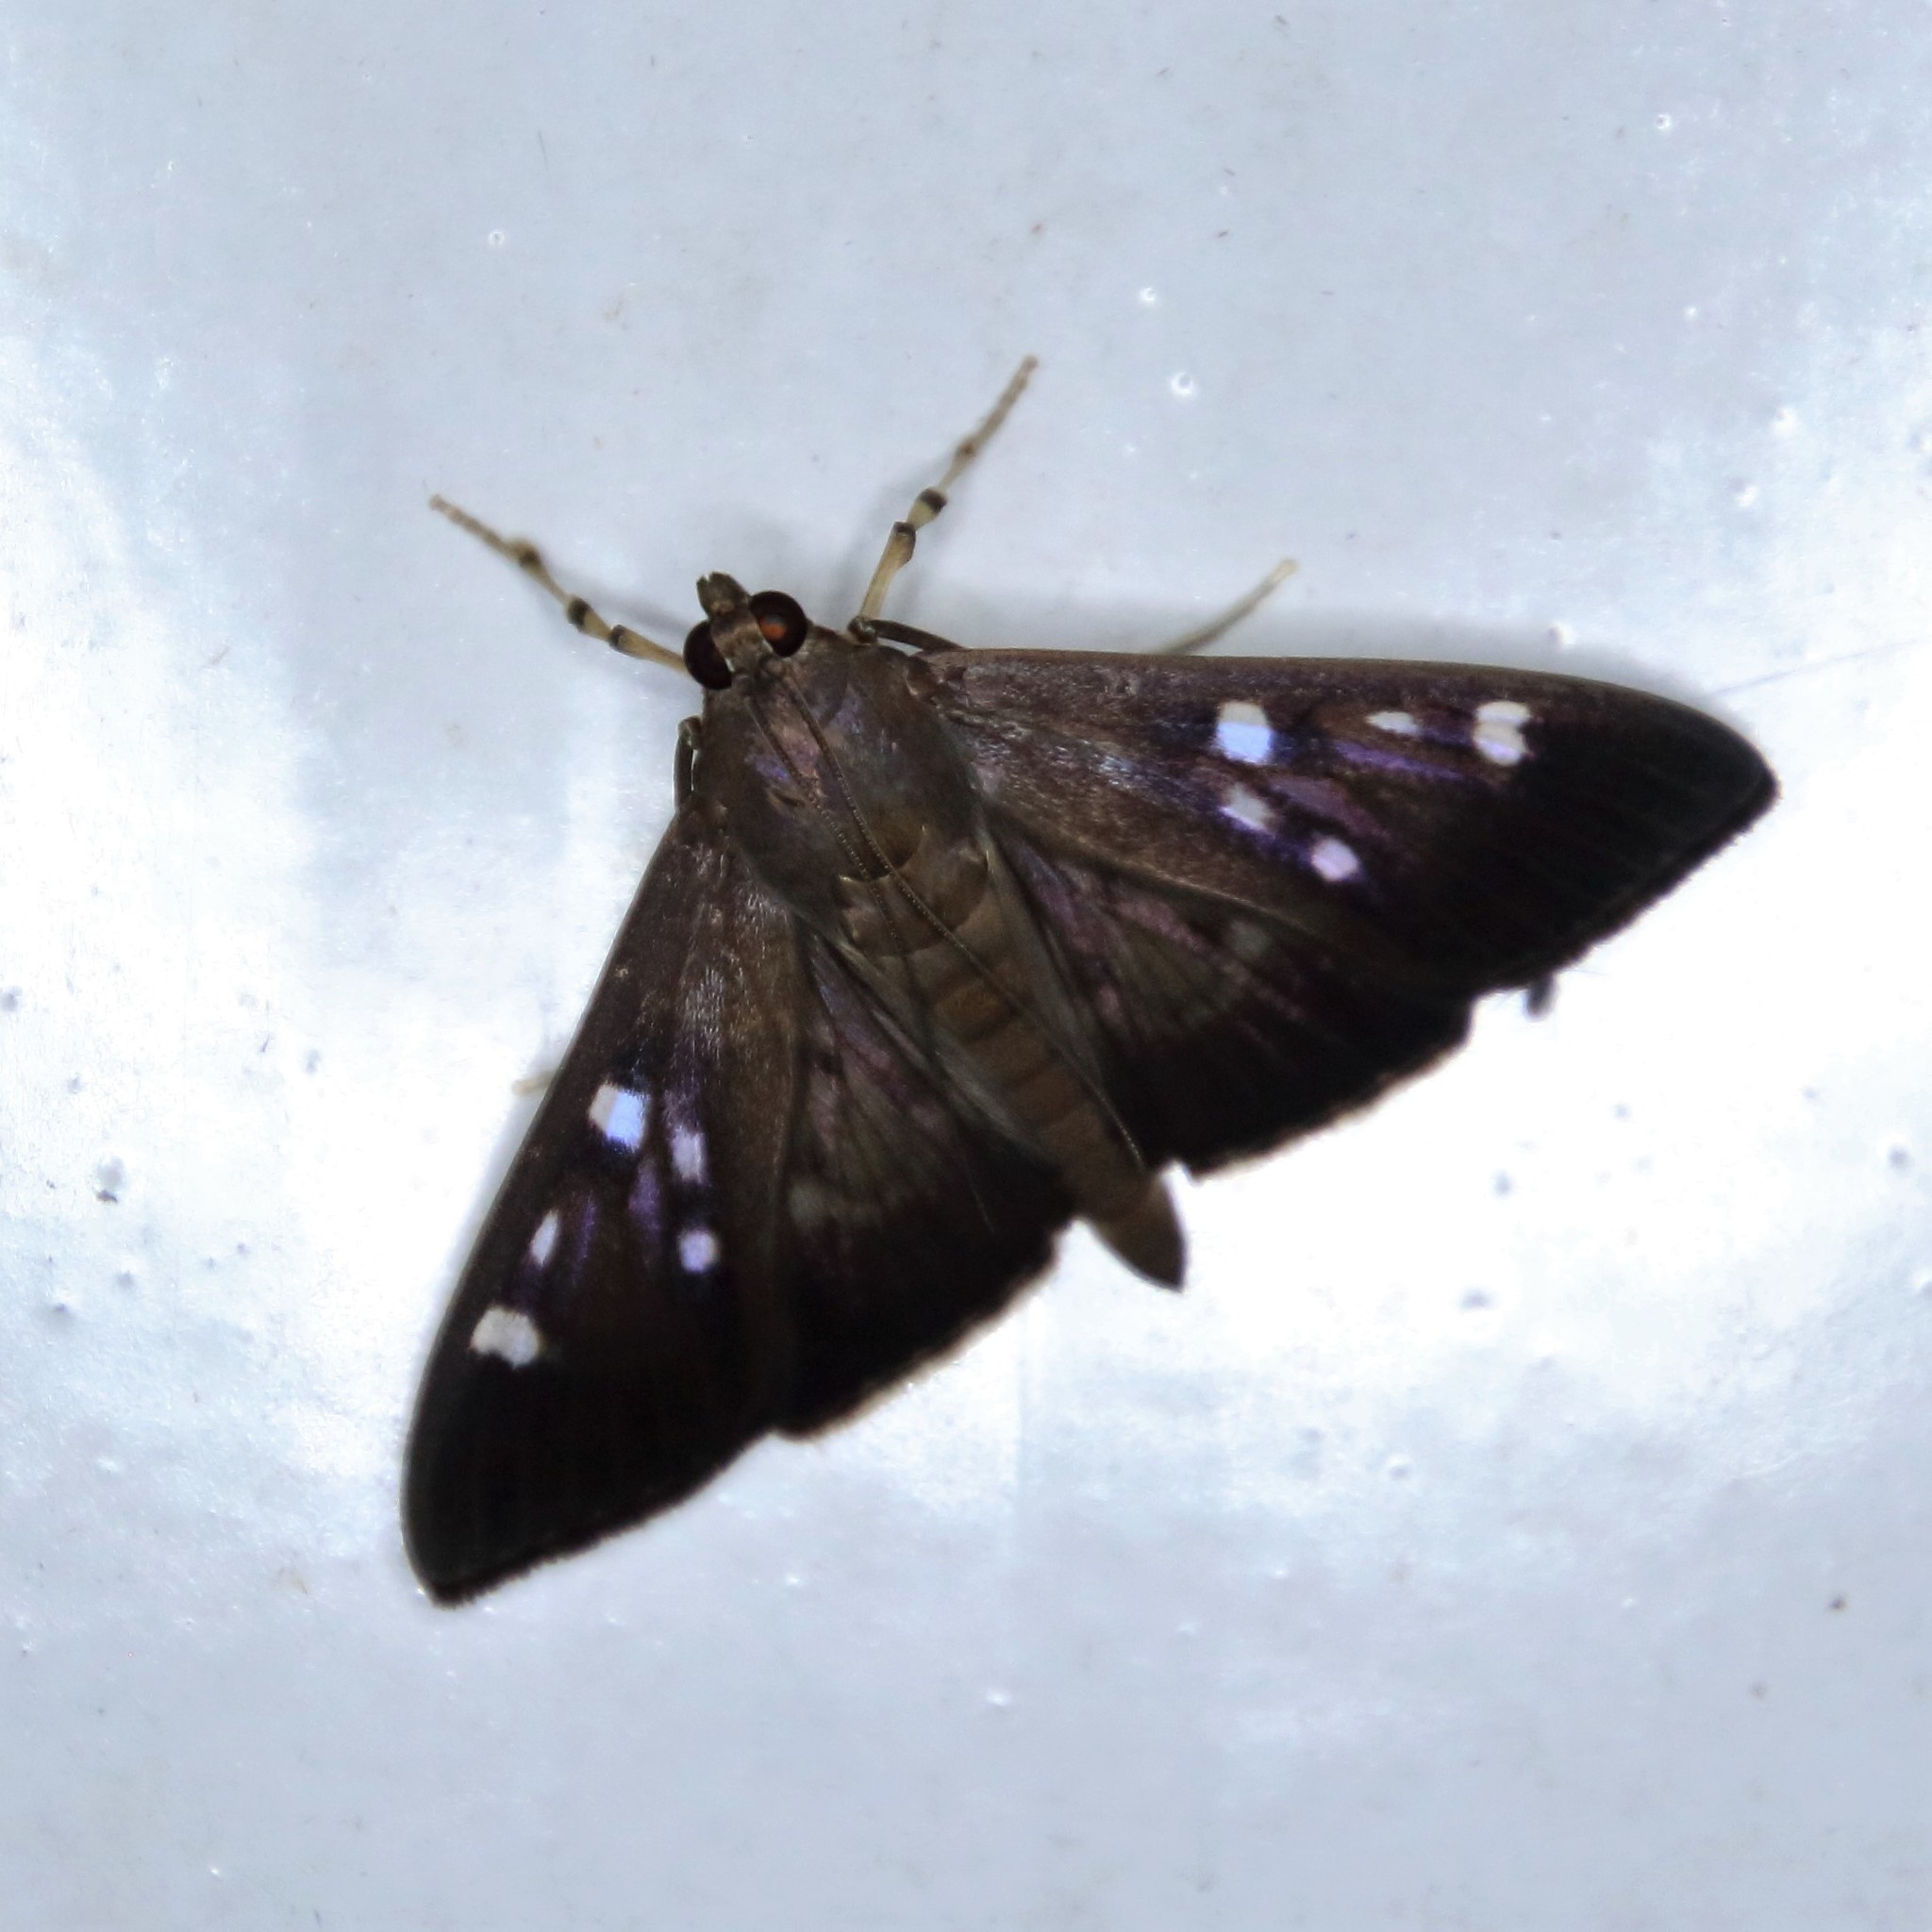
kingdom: Animalia
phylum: Arthropoda
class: Insecta
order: Lepidoptera
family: Crambidae
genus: Syllepte
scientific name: Syllepte iophanes
